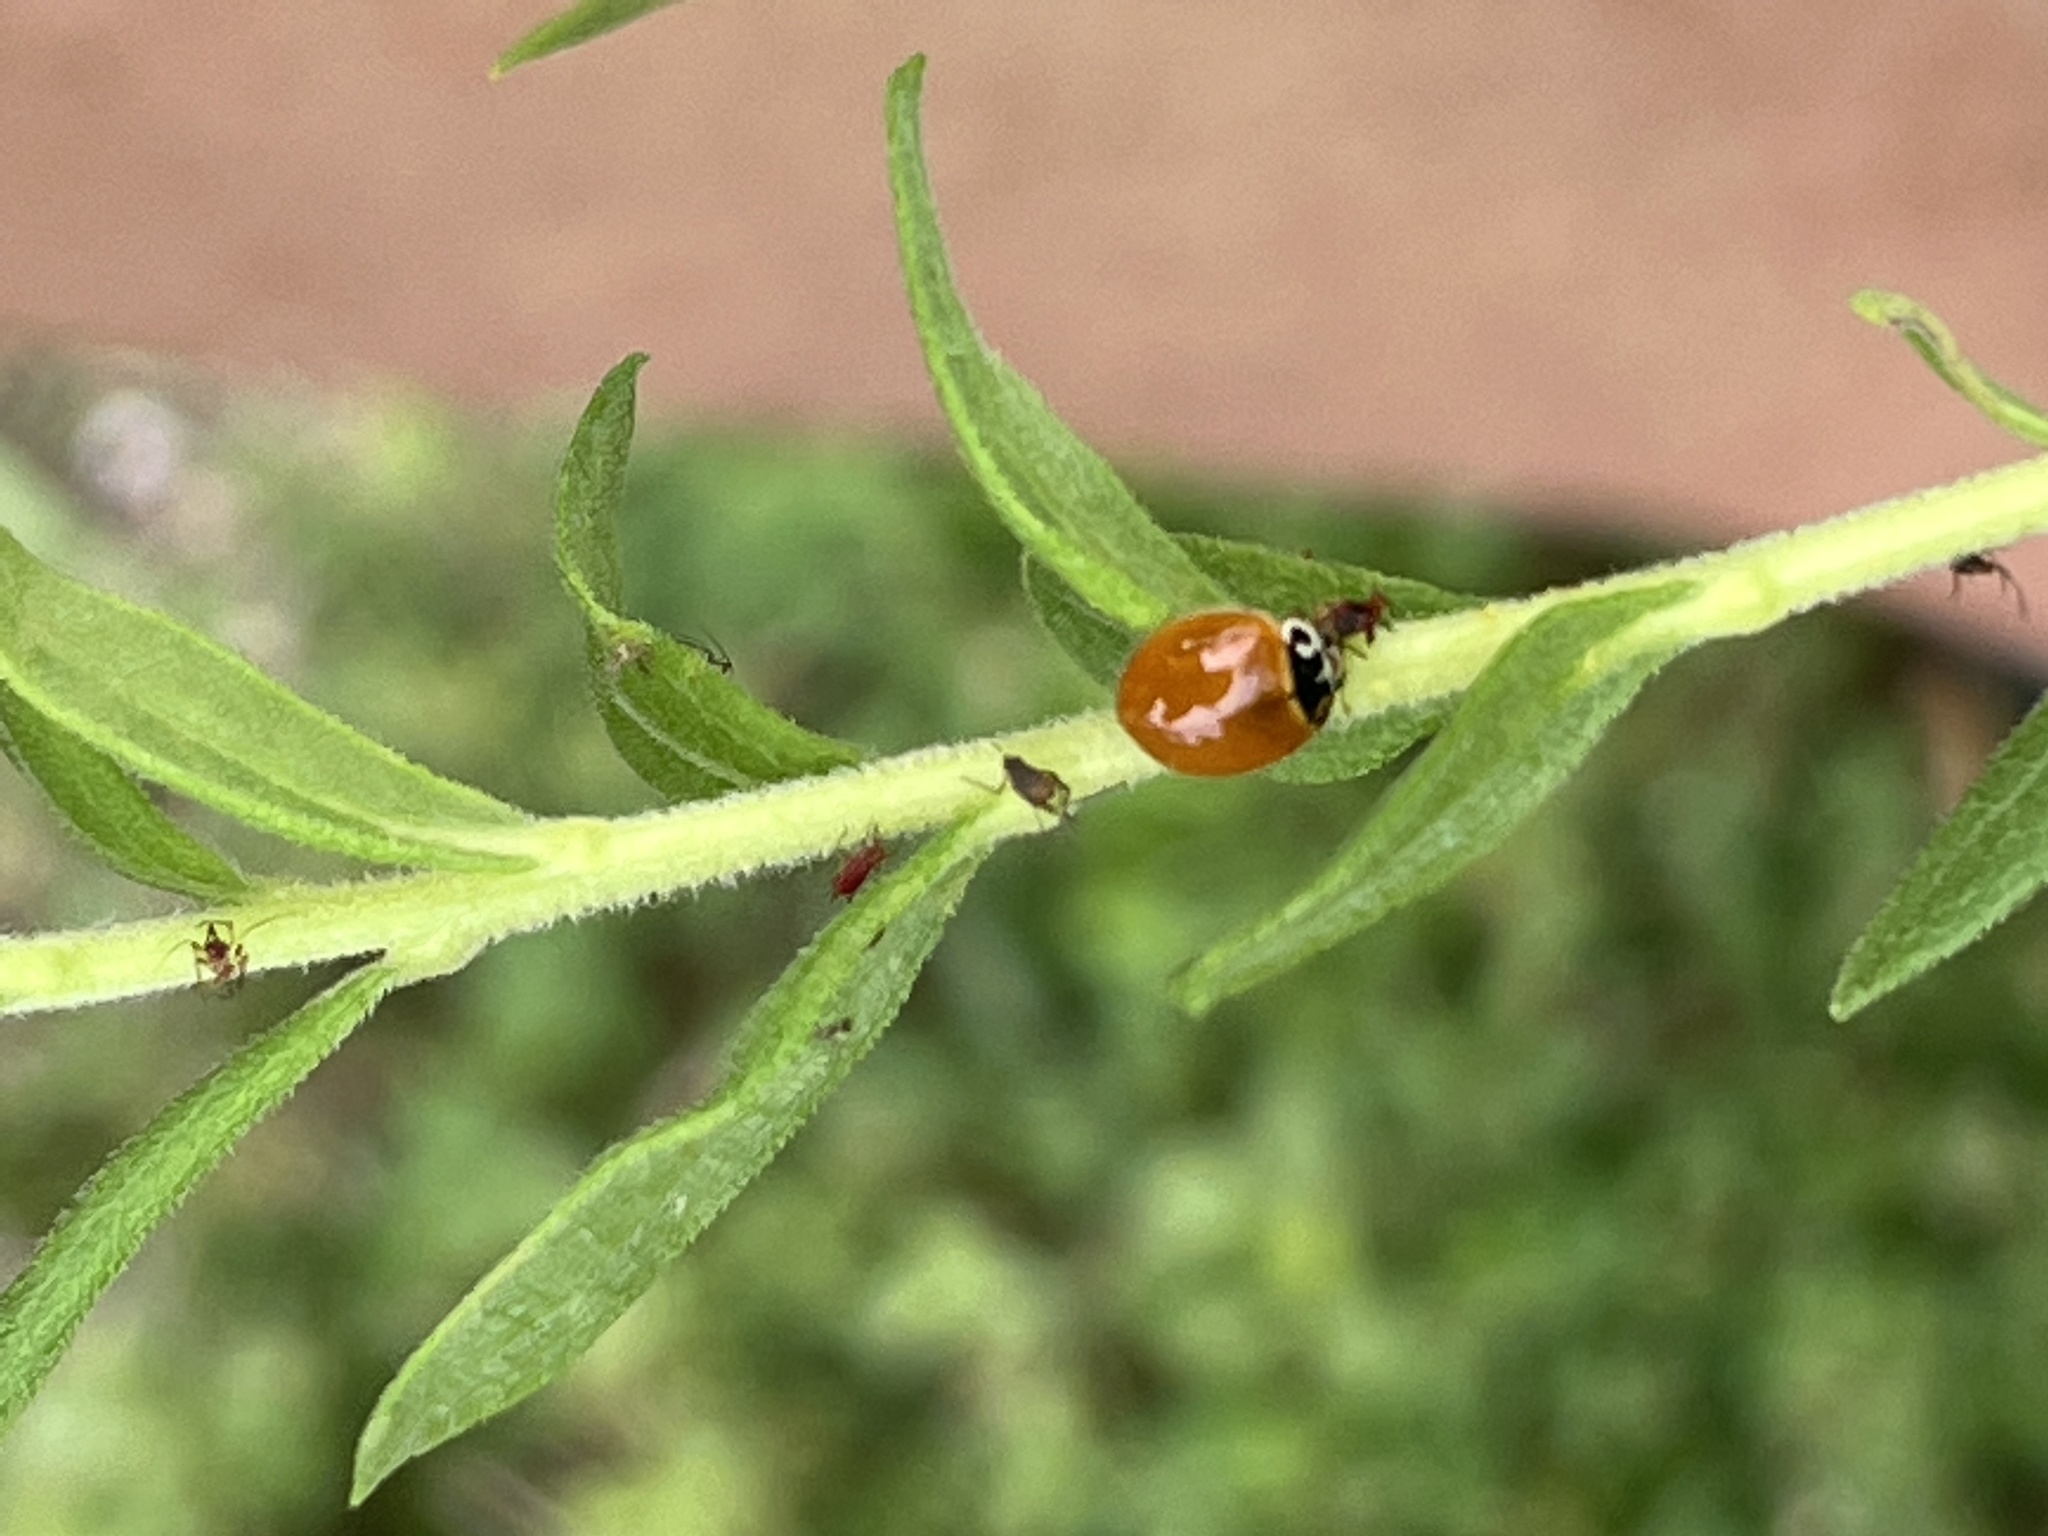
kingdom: Animalia
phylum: Arthropoda
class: Insecta
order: Coleoptera
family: Coccinellidae
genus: Cycloneda
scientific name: Cycloneda munda
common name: Polished lady beetle
